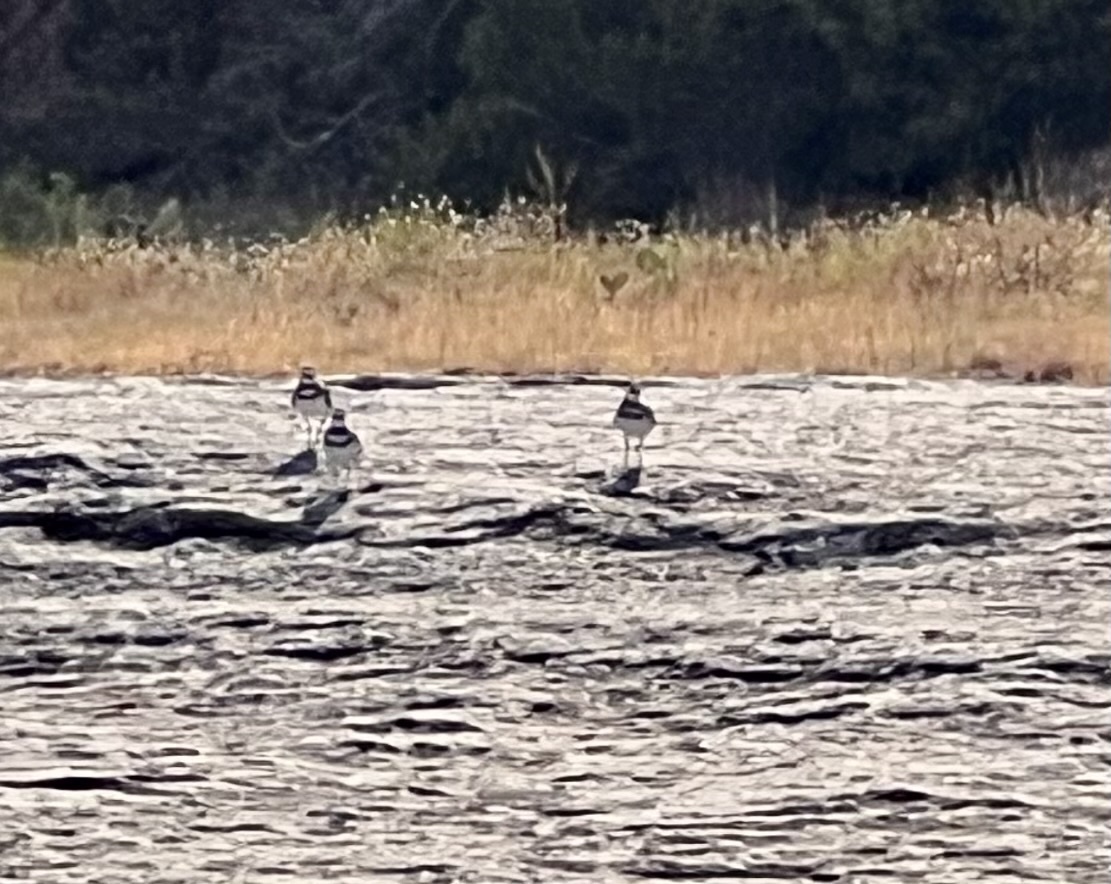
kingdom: Animalia
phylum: Chordata
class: Aves
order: Charadriiformes
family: Charadriidae
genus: Charadrius
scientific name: Charadrius vociferus
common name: Killdeer
